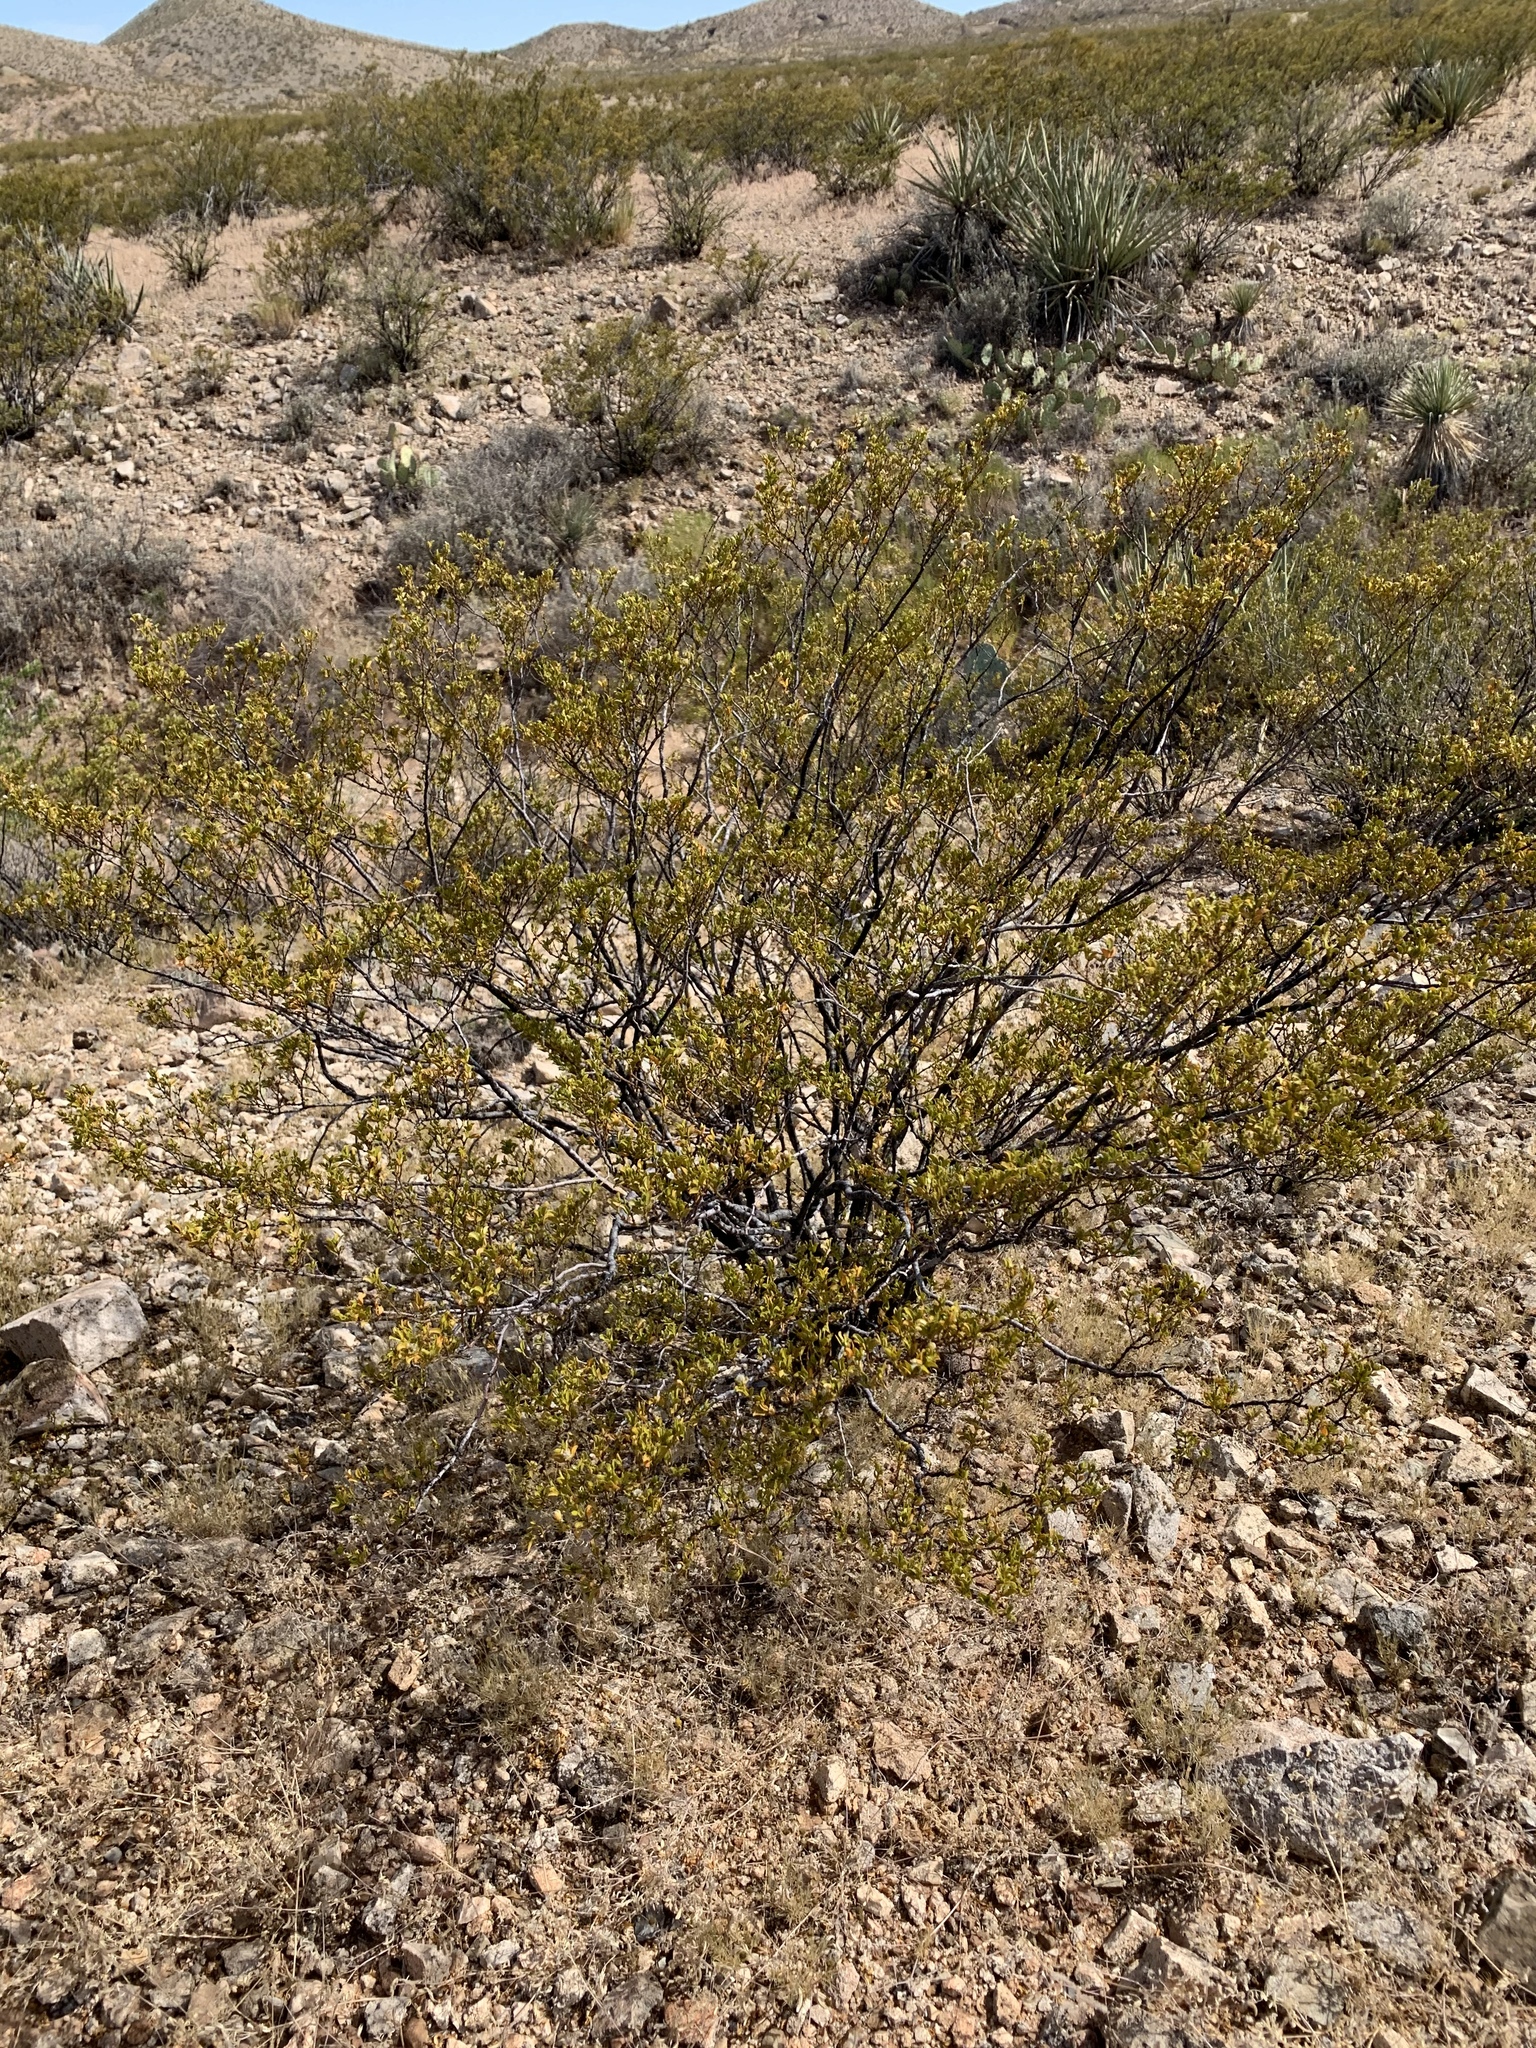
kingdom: Plantae
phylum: Tracheophyta
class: Magnoliopsida
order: Zygophyllales
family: Zygophyllaceae
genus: Larrea
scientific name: Larrea tridentata
